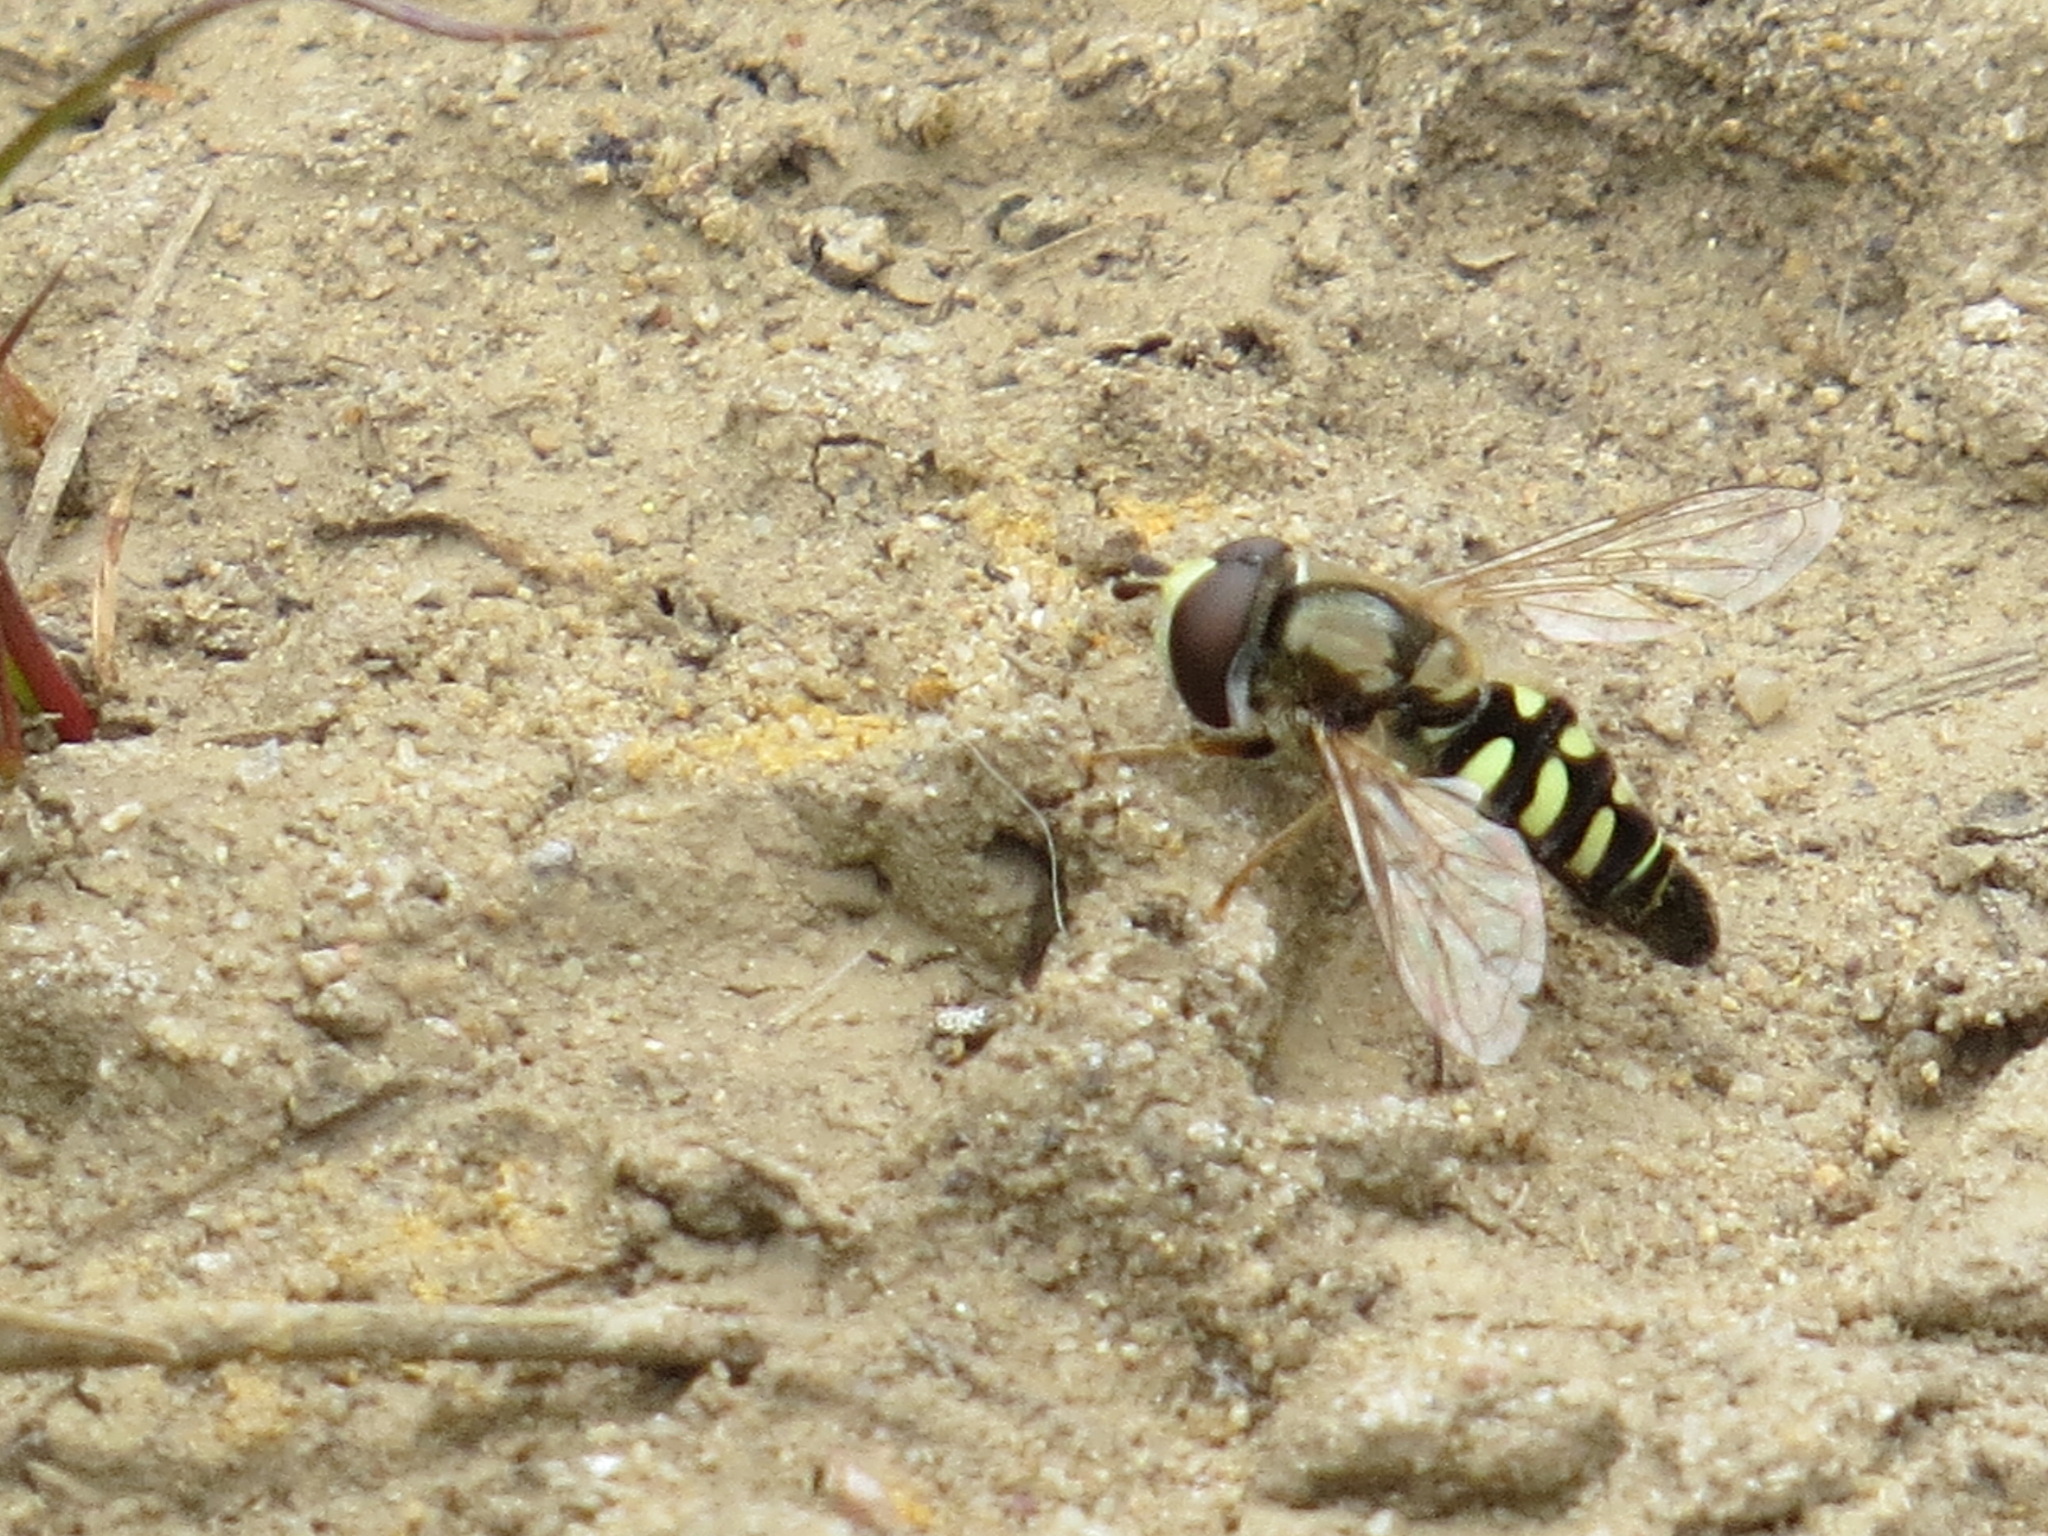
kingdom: Animalia
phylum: Arthropoda
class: Insecta
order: Diptera
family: Syrphidae
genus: Eupeodes
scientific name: Eupeodes volucris
